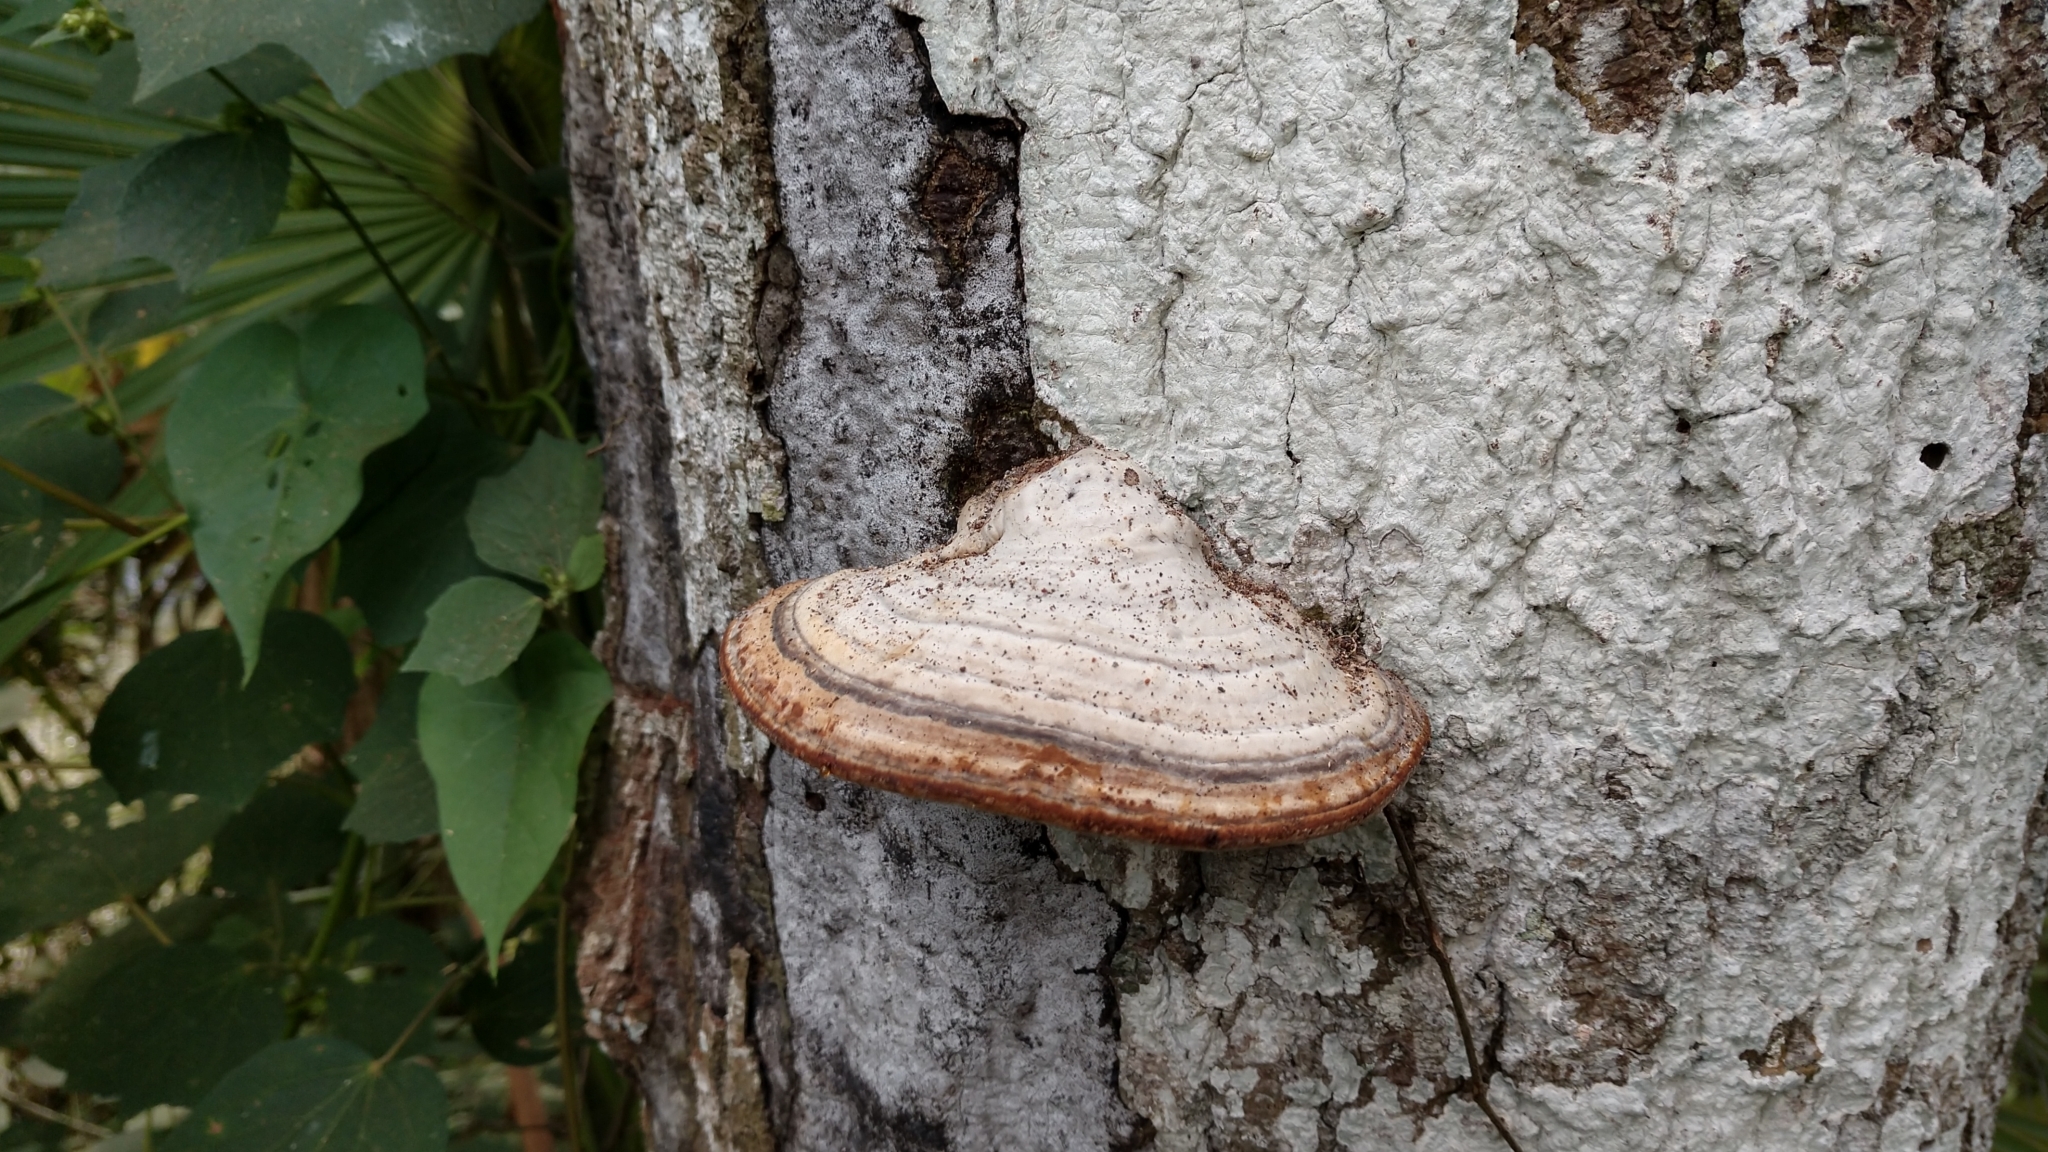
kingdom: Fungi
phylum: Basidiomycota
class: Agaricomycetes
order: Polyporales
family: Polyporaceae
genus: Fomes
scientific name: Fomes fasciatus
